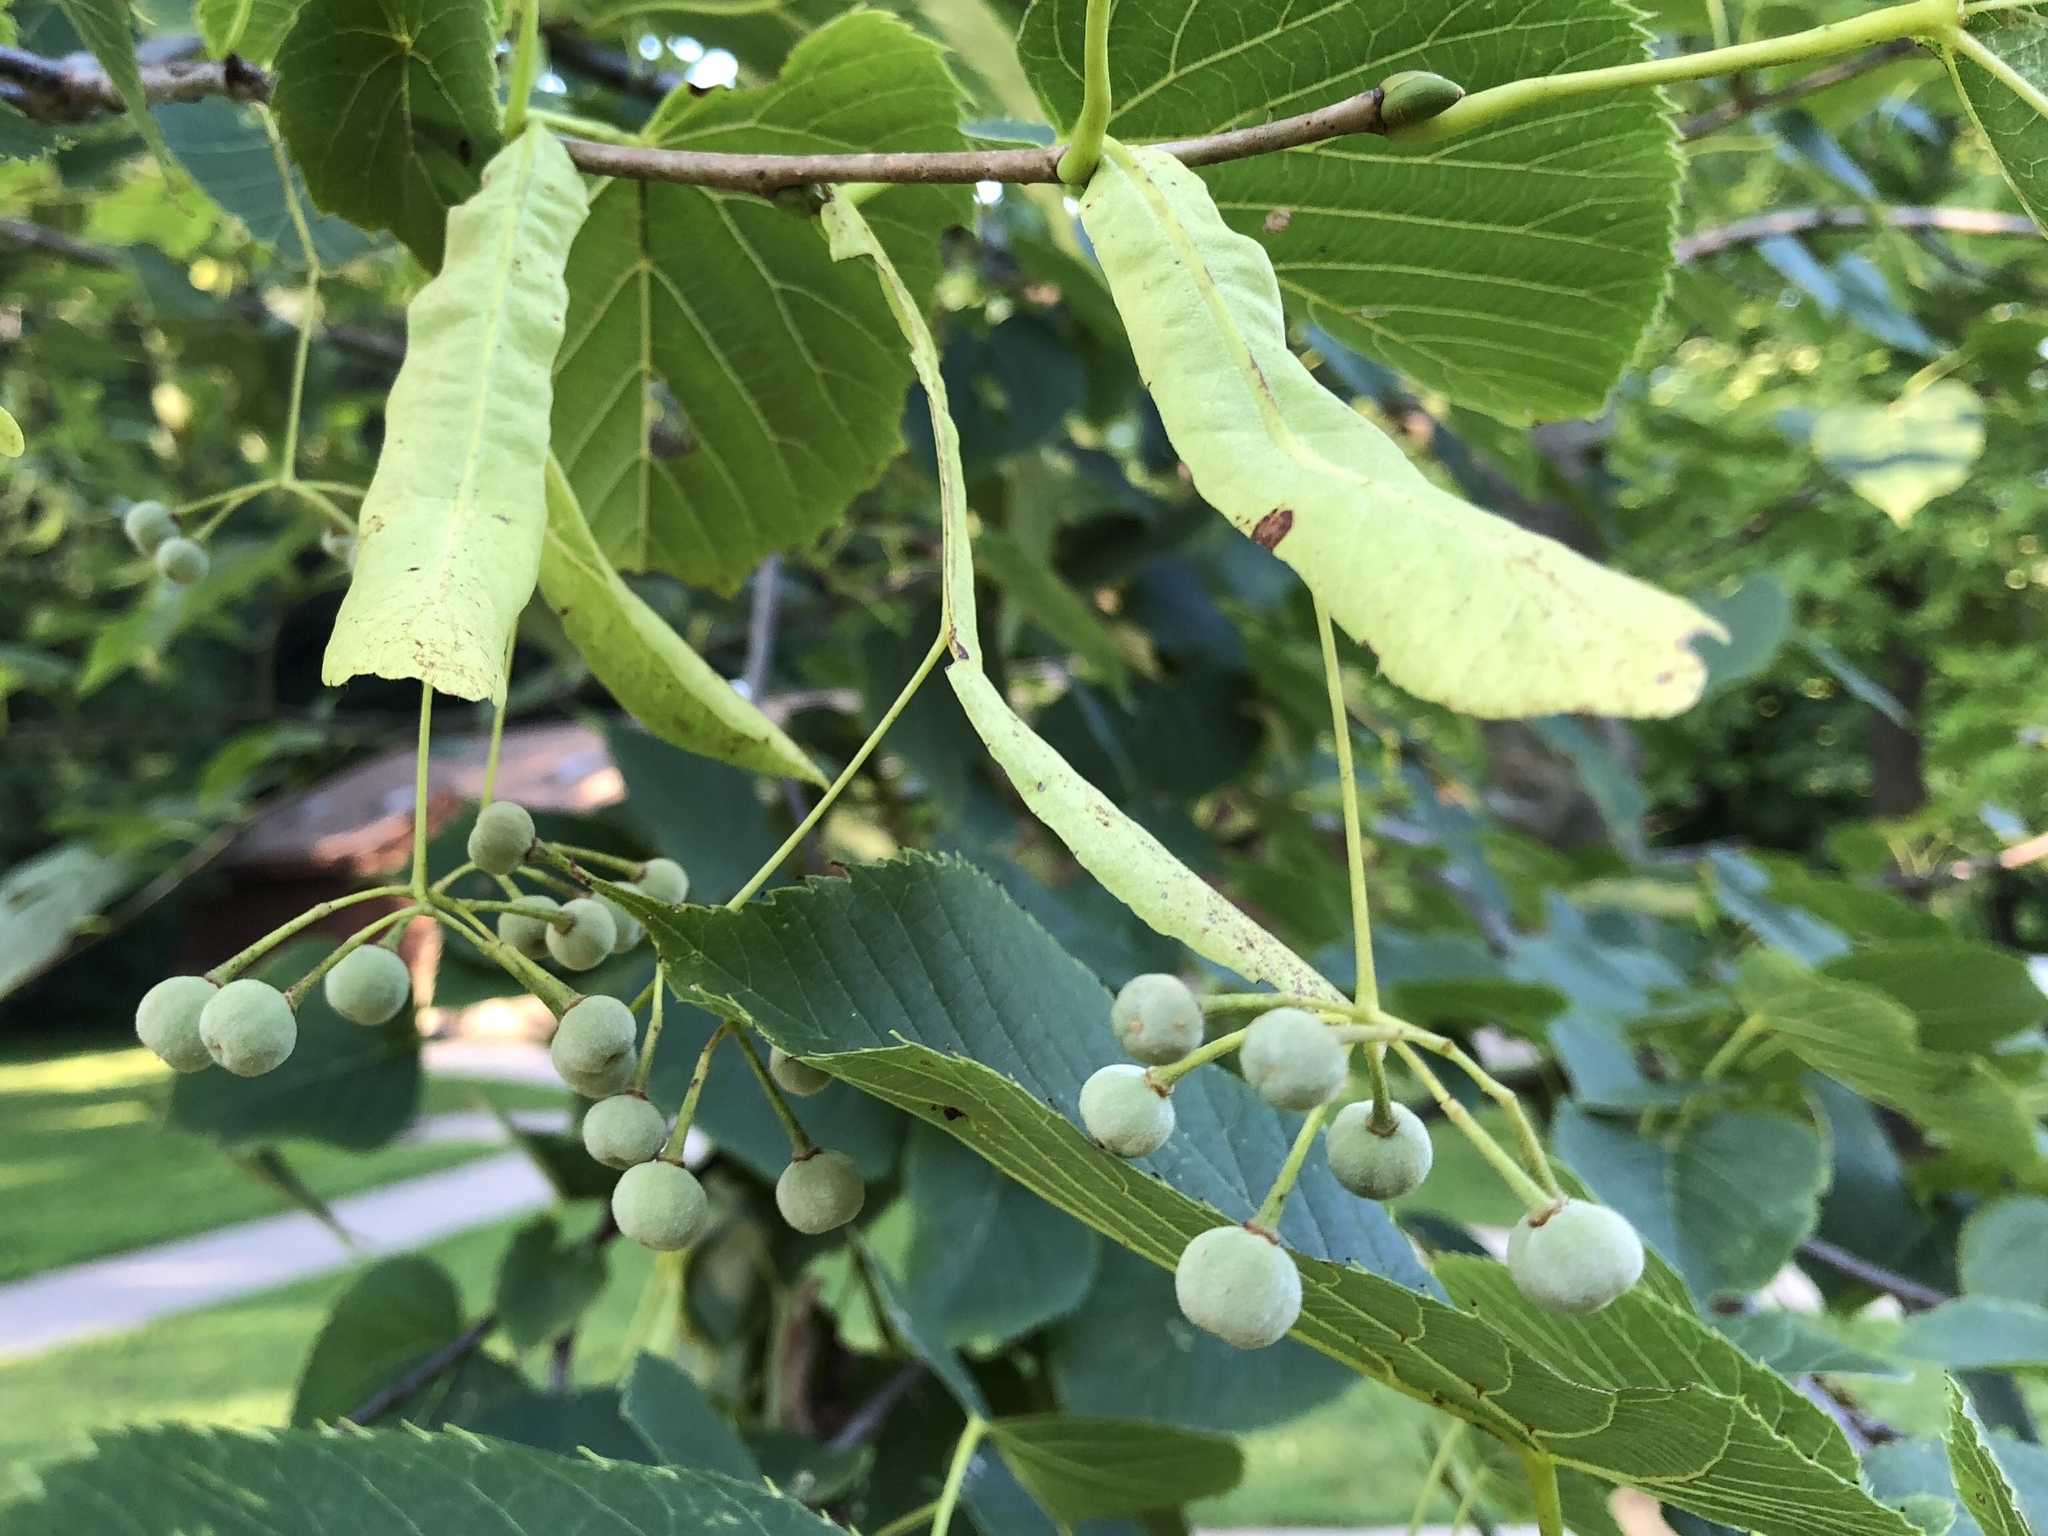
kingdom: Plantae
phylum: Tracheophyta
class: Magnoliopsida
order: Malvales
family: Malvaceae
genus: Tilia
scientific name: Tilia americana
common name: Basswood
